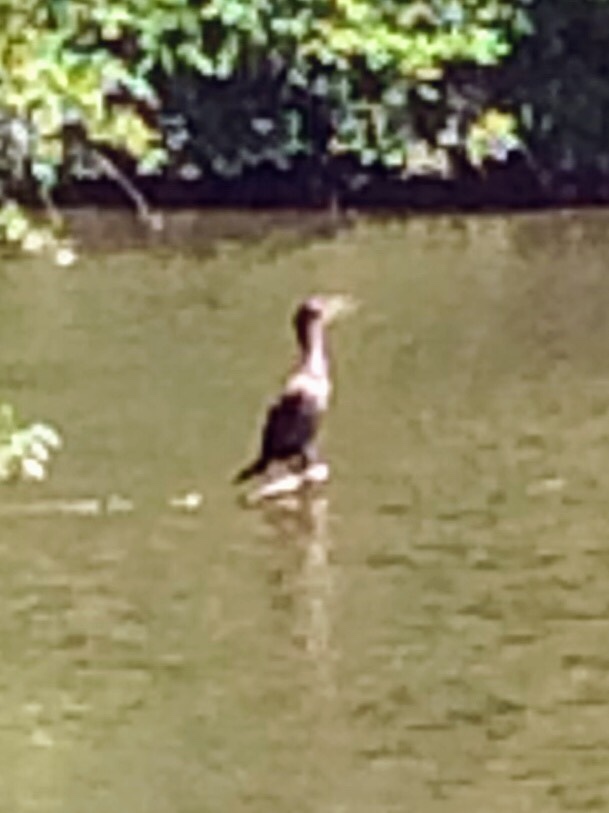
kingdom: Animalia
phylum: Chordata
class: Aves
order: Suliformes
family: Phalacrocoracidae
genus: Phalacrocorax
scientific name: Phalacrocorax auritus
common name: Double-crested cormorant
